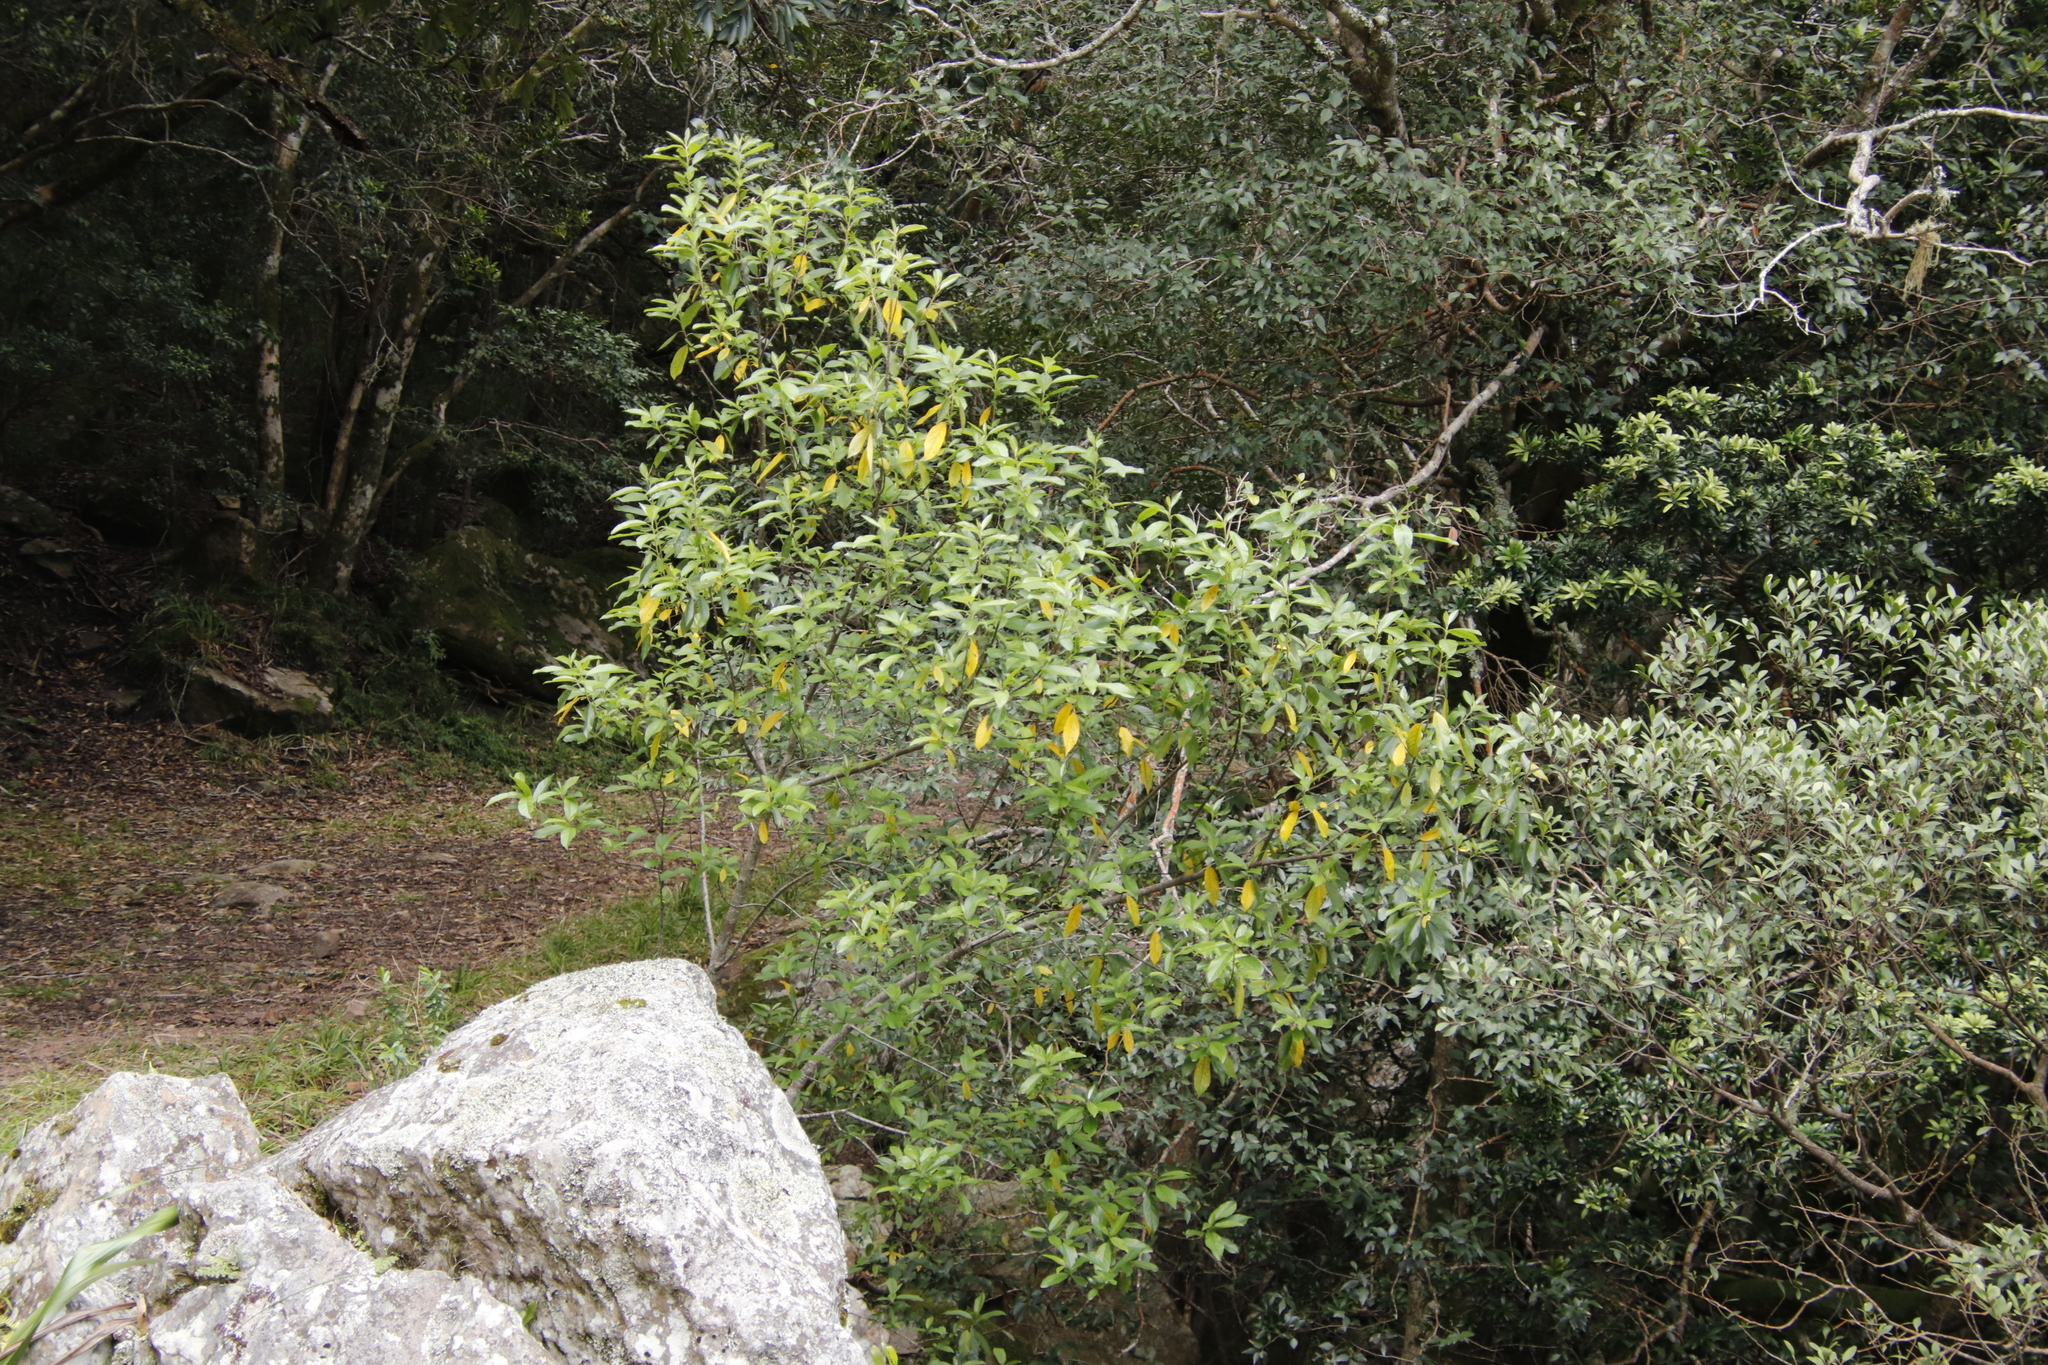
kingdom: Plantae
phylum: Tracheophyta
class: Magnoliopsida
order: Malpighiales
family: Achariaceae
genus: Kiggelaria
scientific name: Kiggelaria africana
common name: Wild peach
